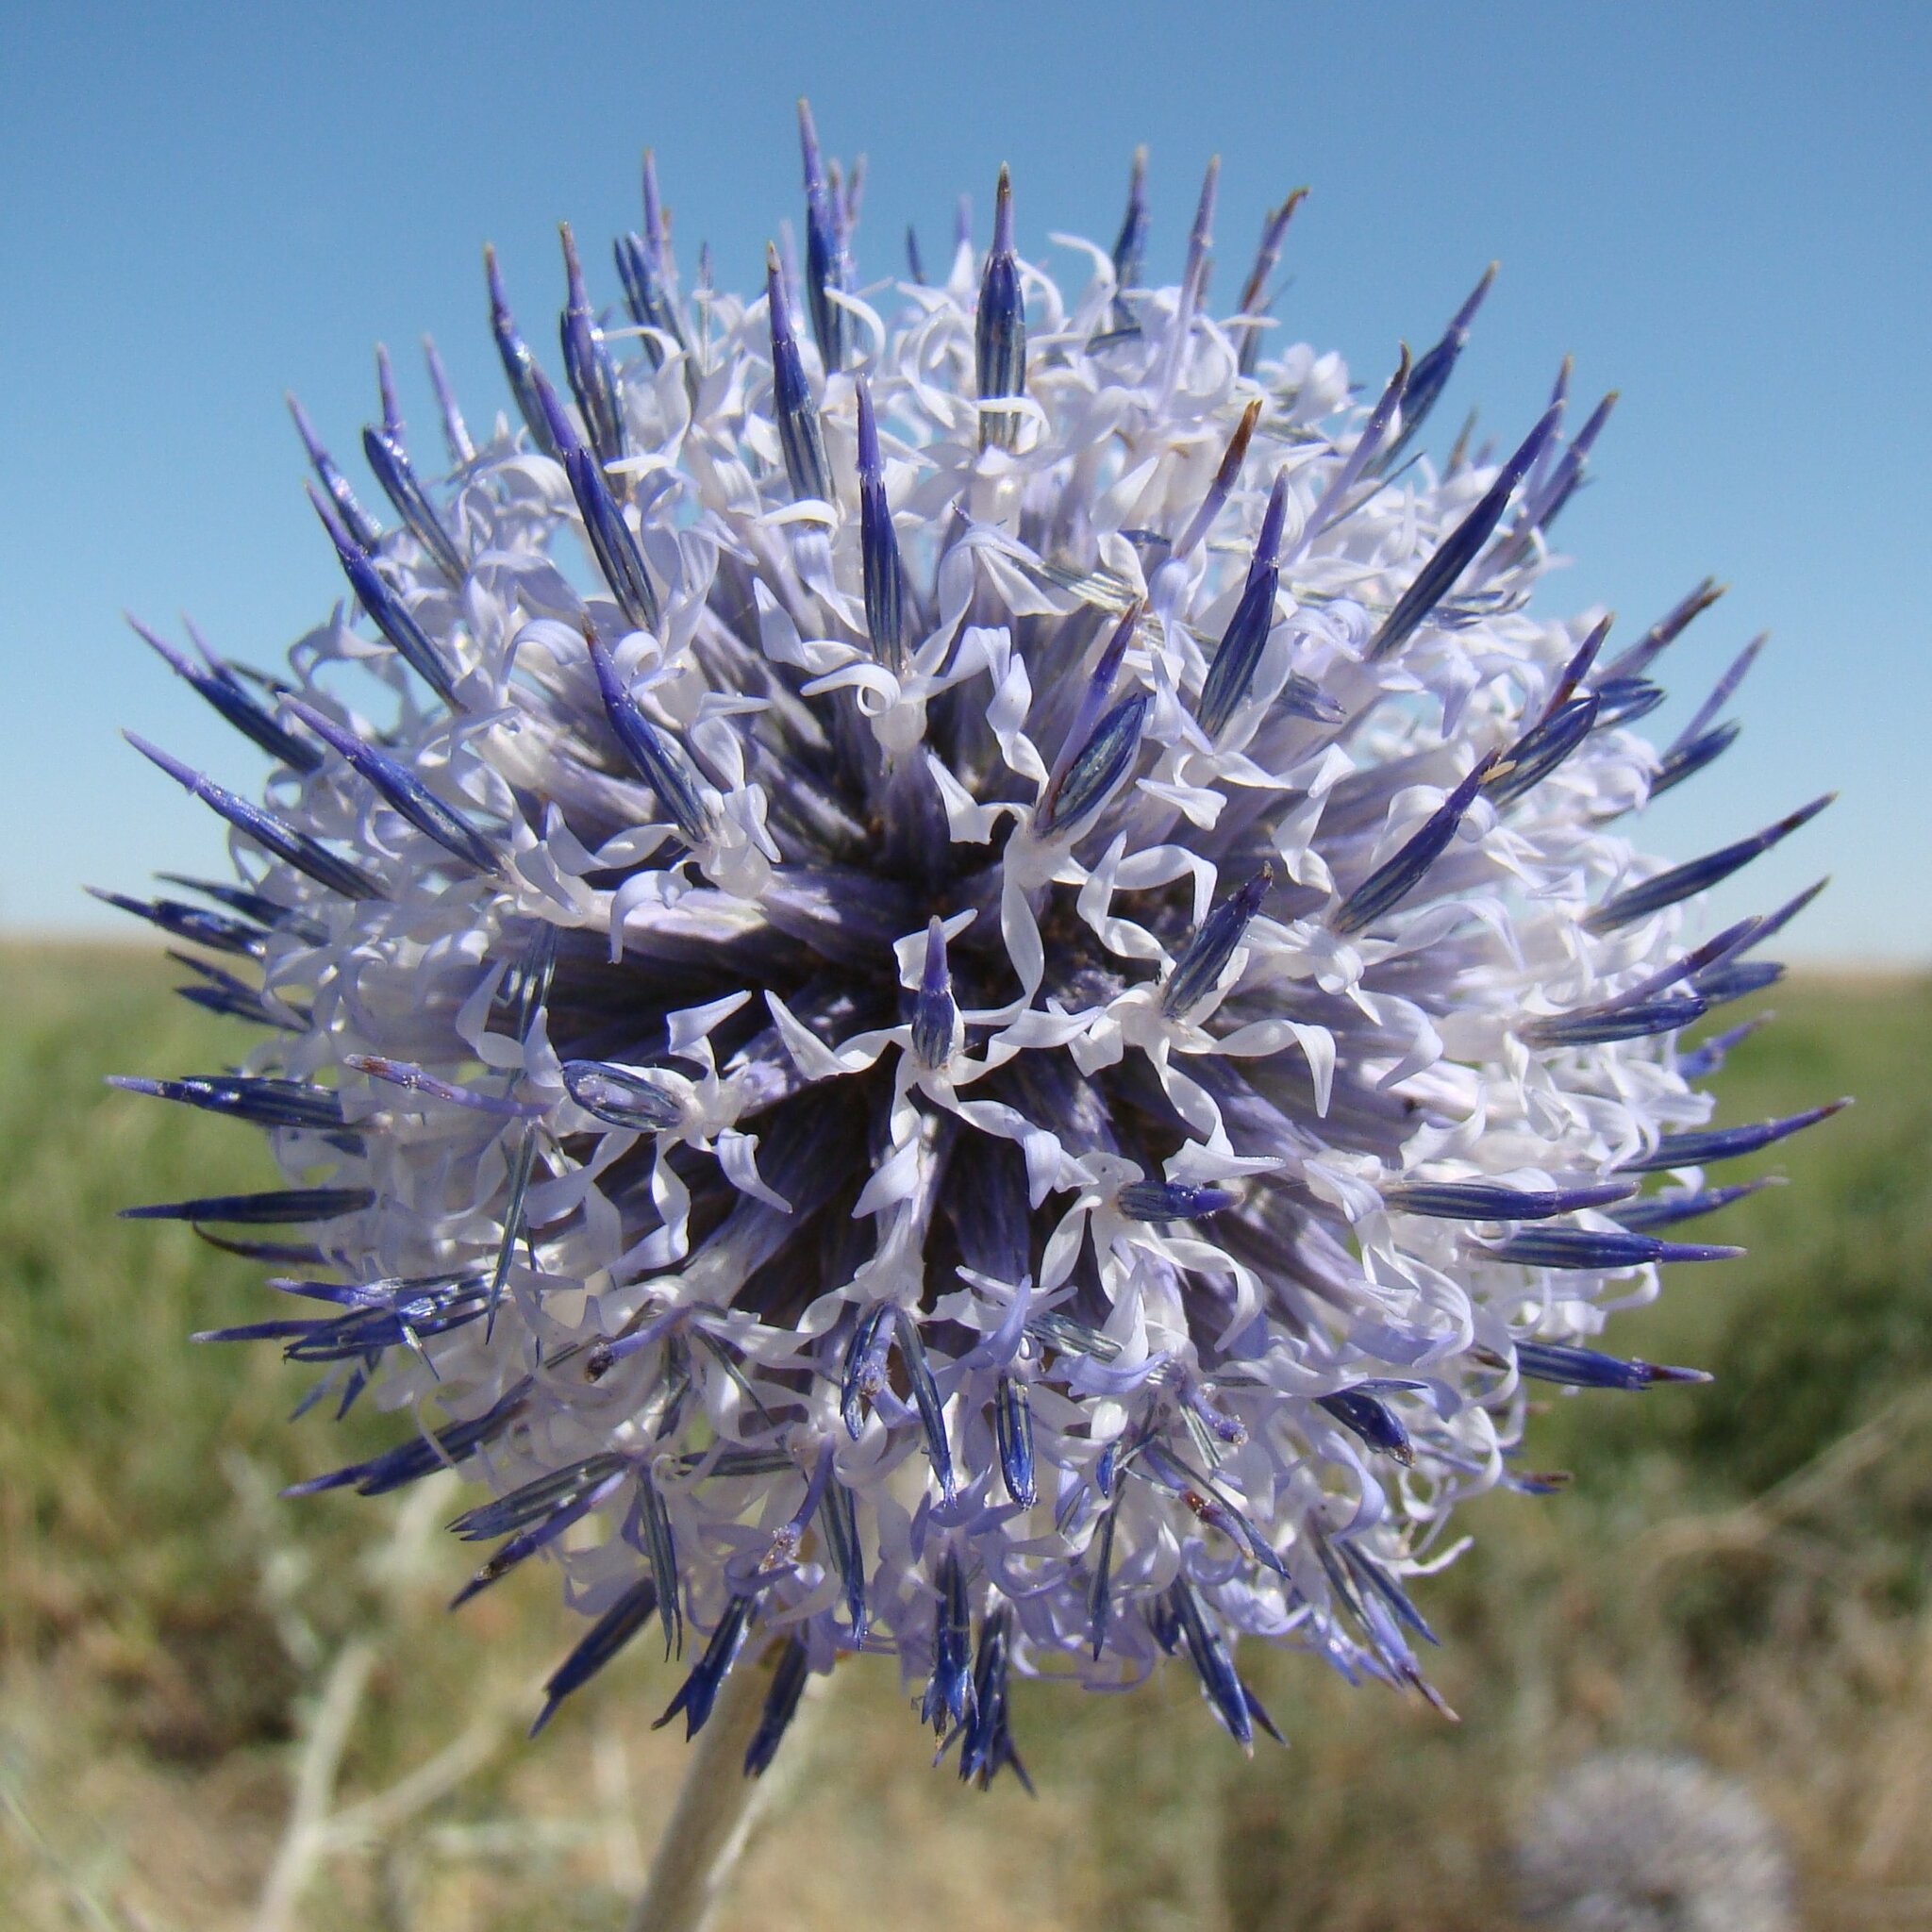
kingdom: Plantae
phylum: Tracheophyta
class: Magnoliopsida
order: Asterales
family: Asteraceae
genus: Echinops
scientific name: Echinops albicaulis
